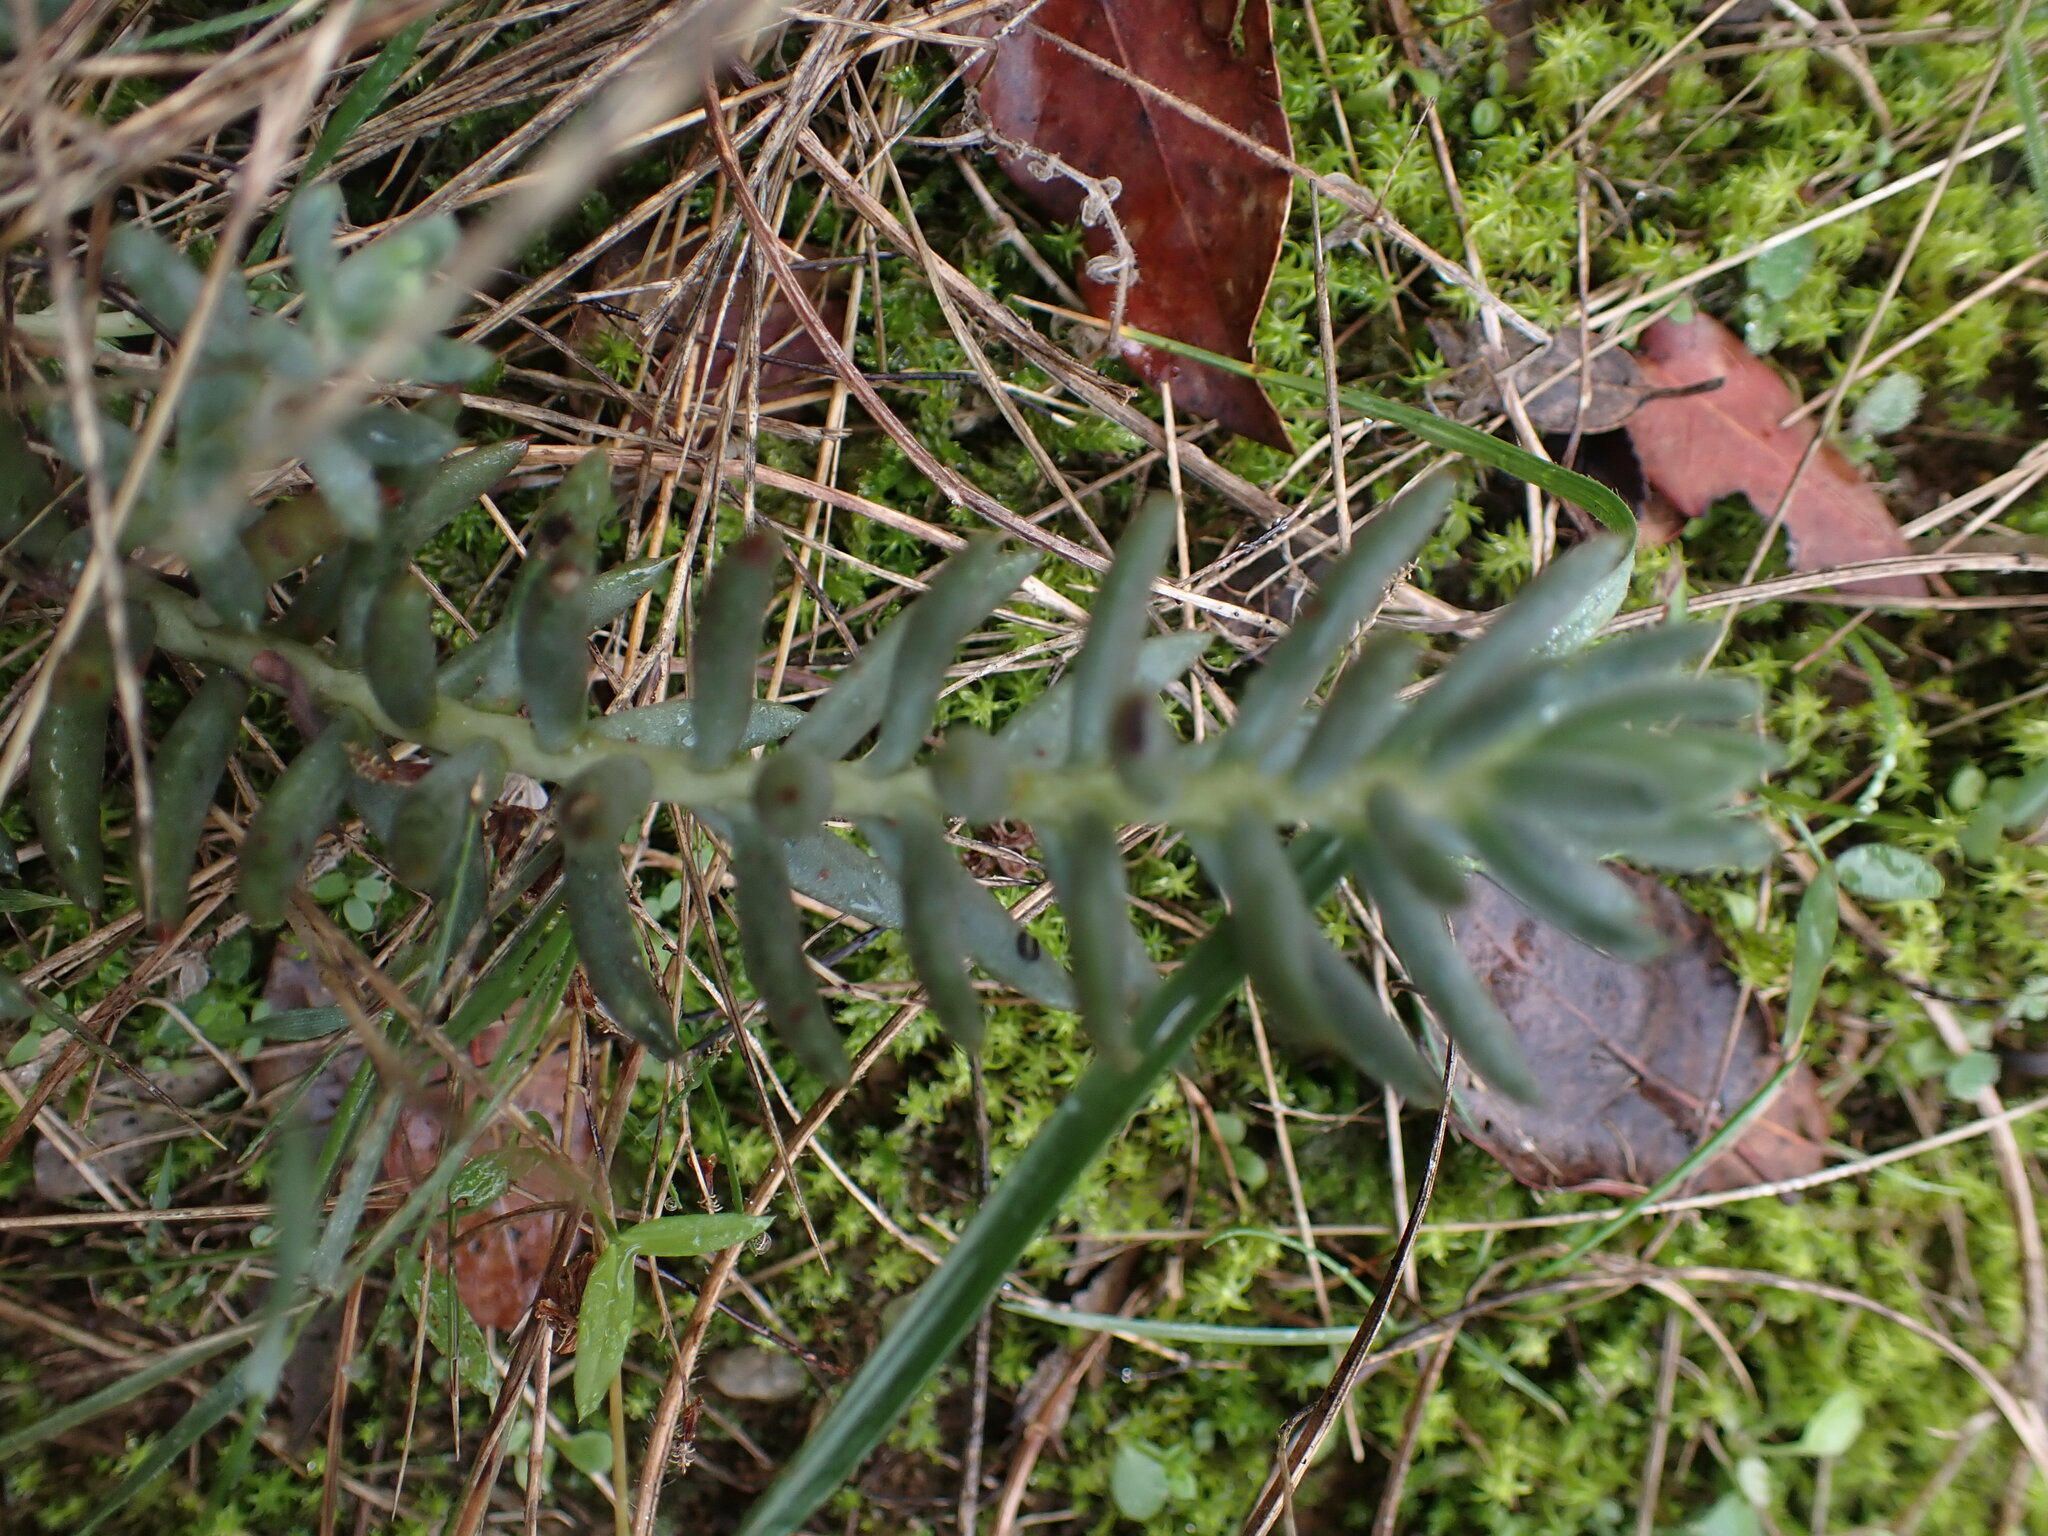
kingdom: Plantae
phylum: Tracheophyta
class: Magnoliopsida
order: Saxifragales
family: Crassulaceae
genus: Petrosedum
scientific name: Petrosedum sediforme
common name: Pale stonecrop
